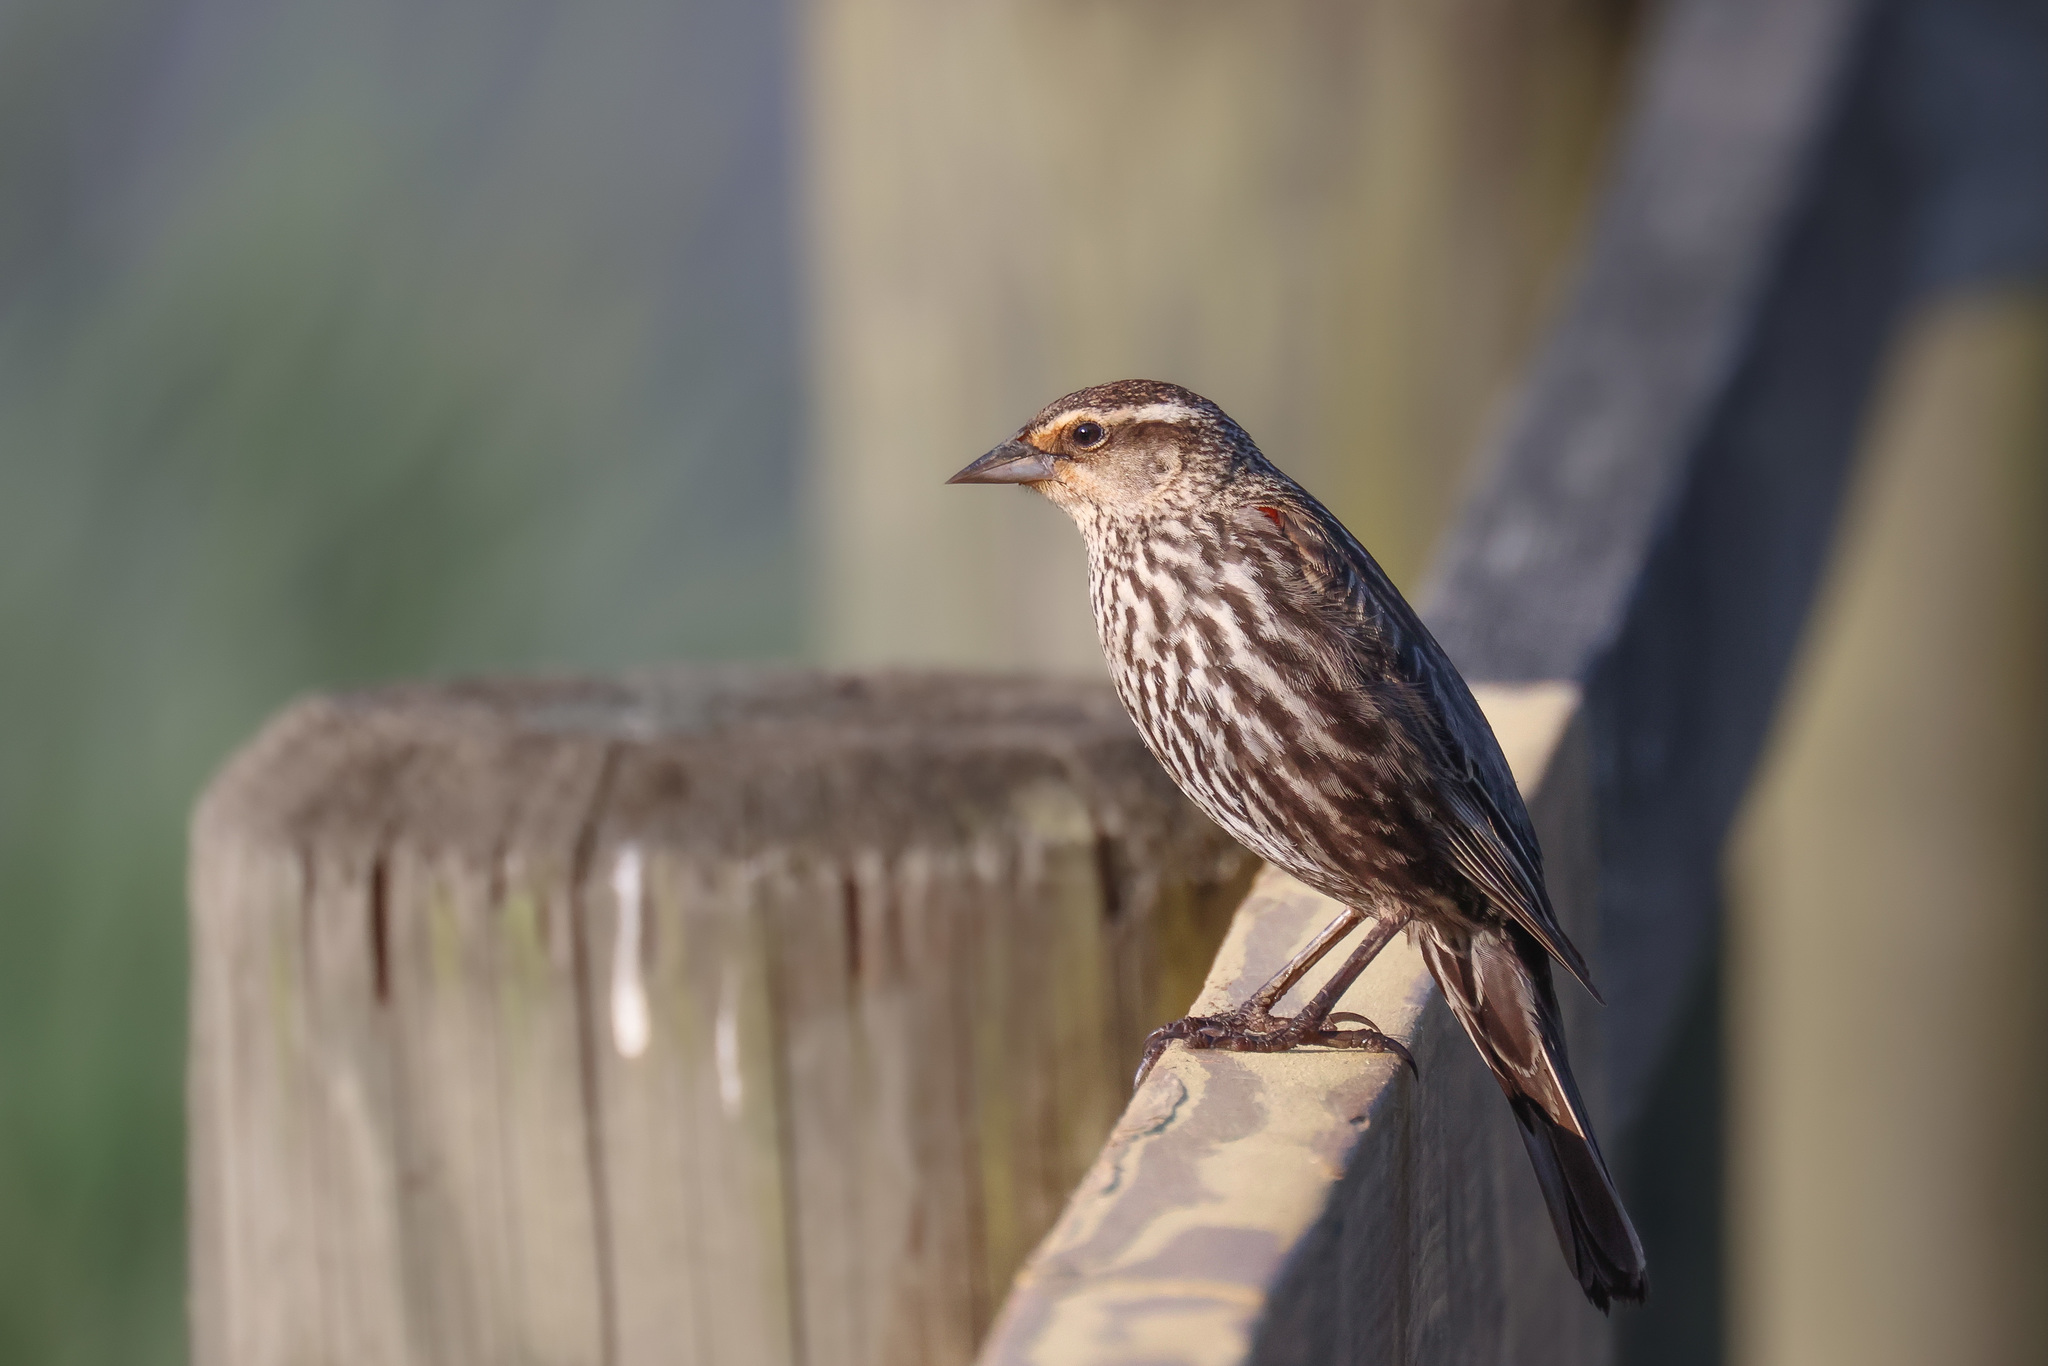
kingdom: Animalia
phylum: Chordata
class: Aves
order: Passeriformes
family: Icteridae
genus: Agelaius
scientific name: Agelaius phoeniceus
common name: Red-winged blackbird
